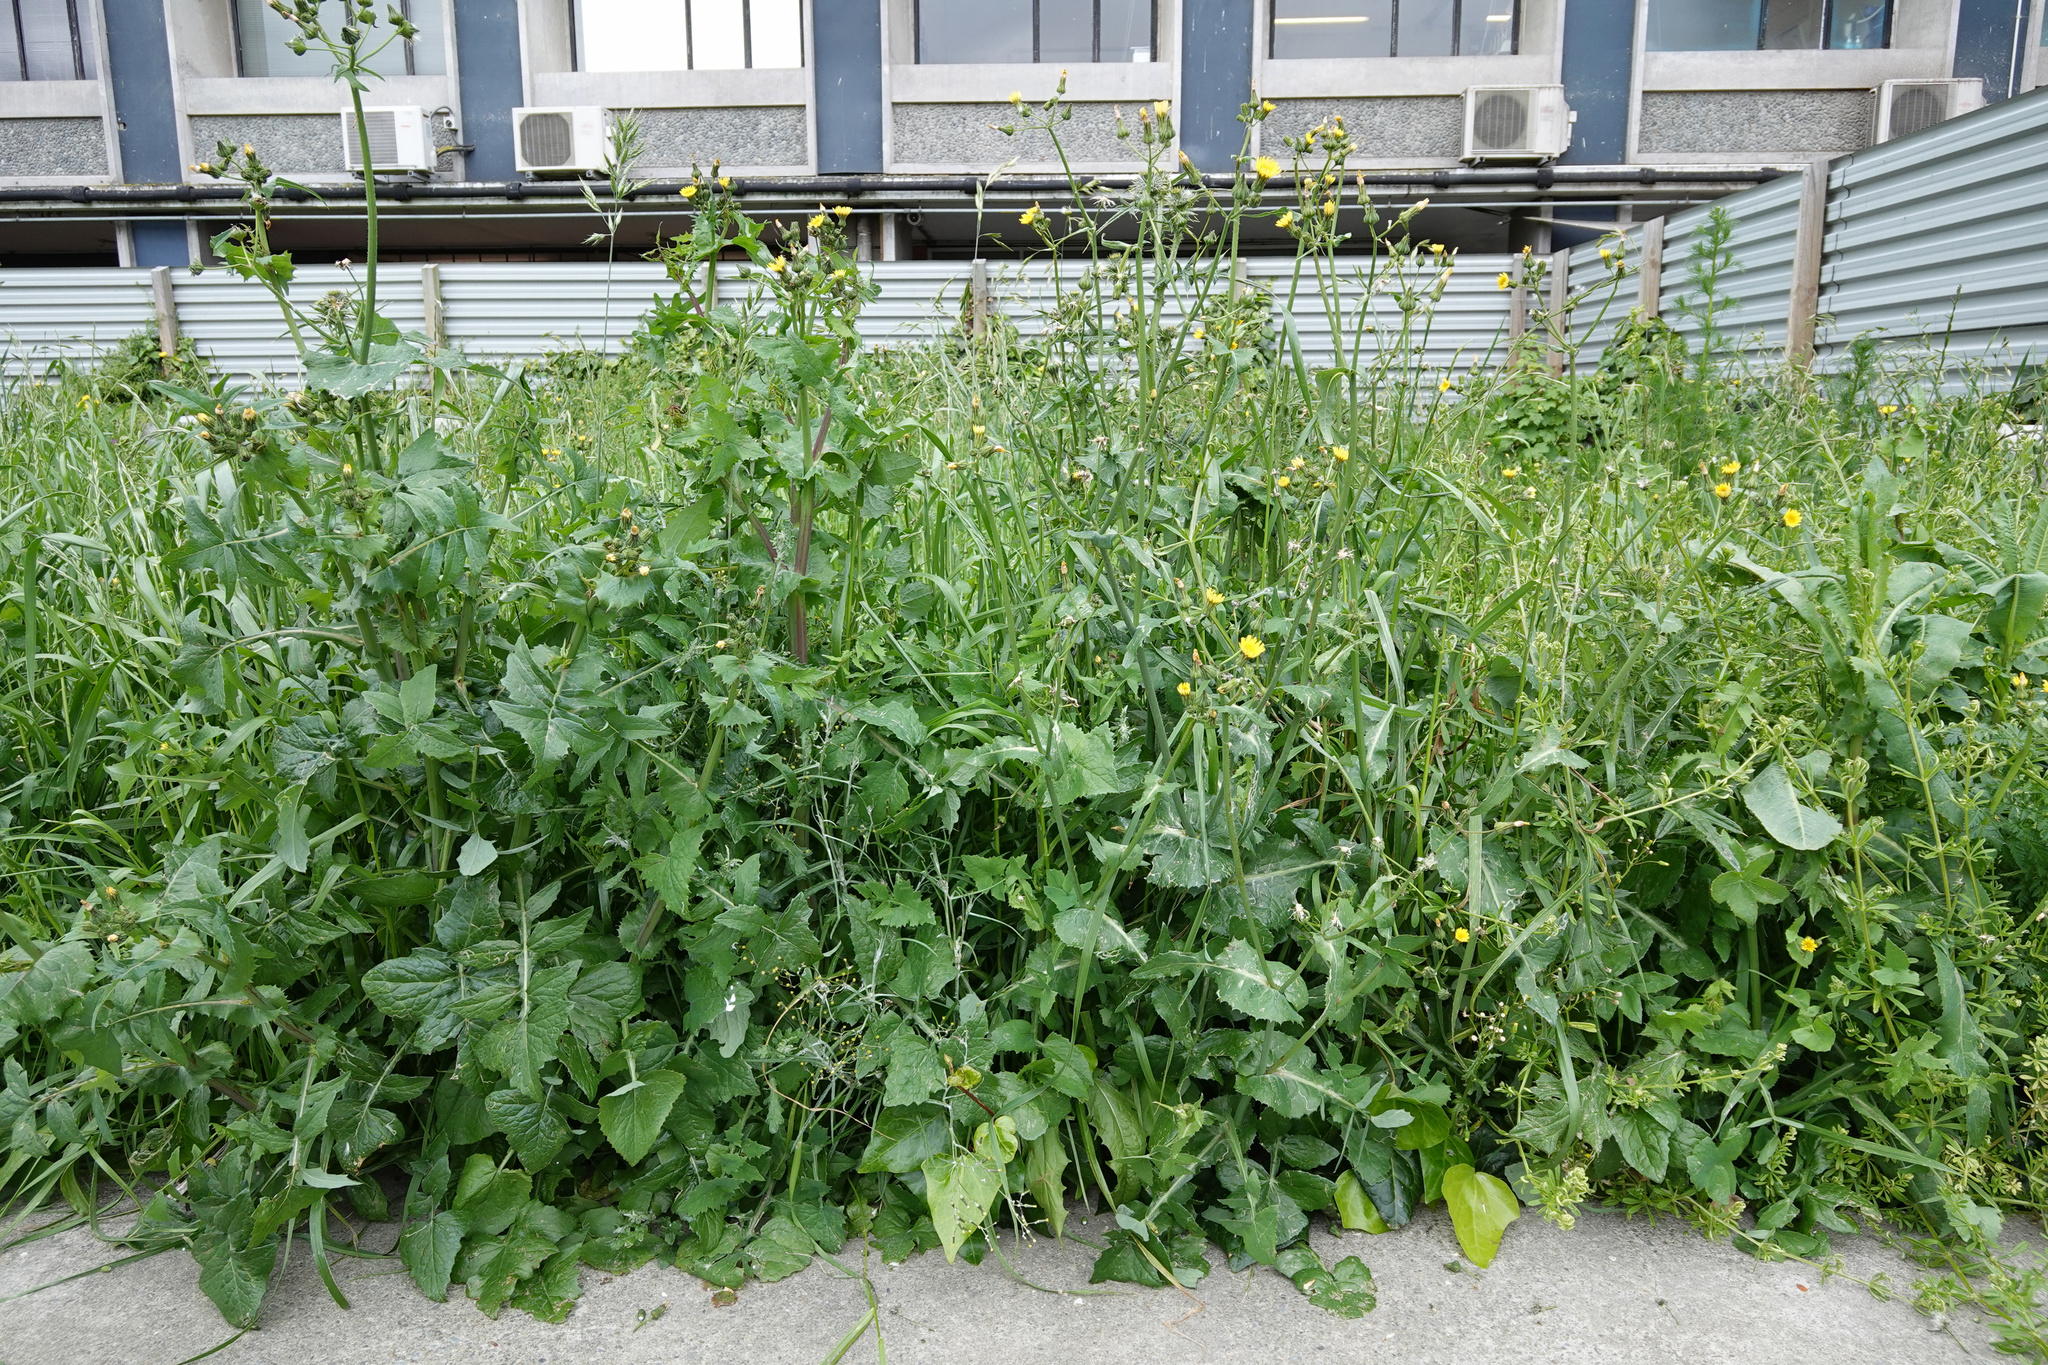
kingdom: Plantae
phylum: Tracheophyta
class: Magnoliopsida
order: Asterales
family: Asteraceae
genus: Senecio
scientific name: Senecio quadridentatus
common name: Cotton fireweed
